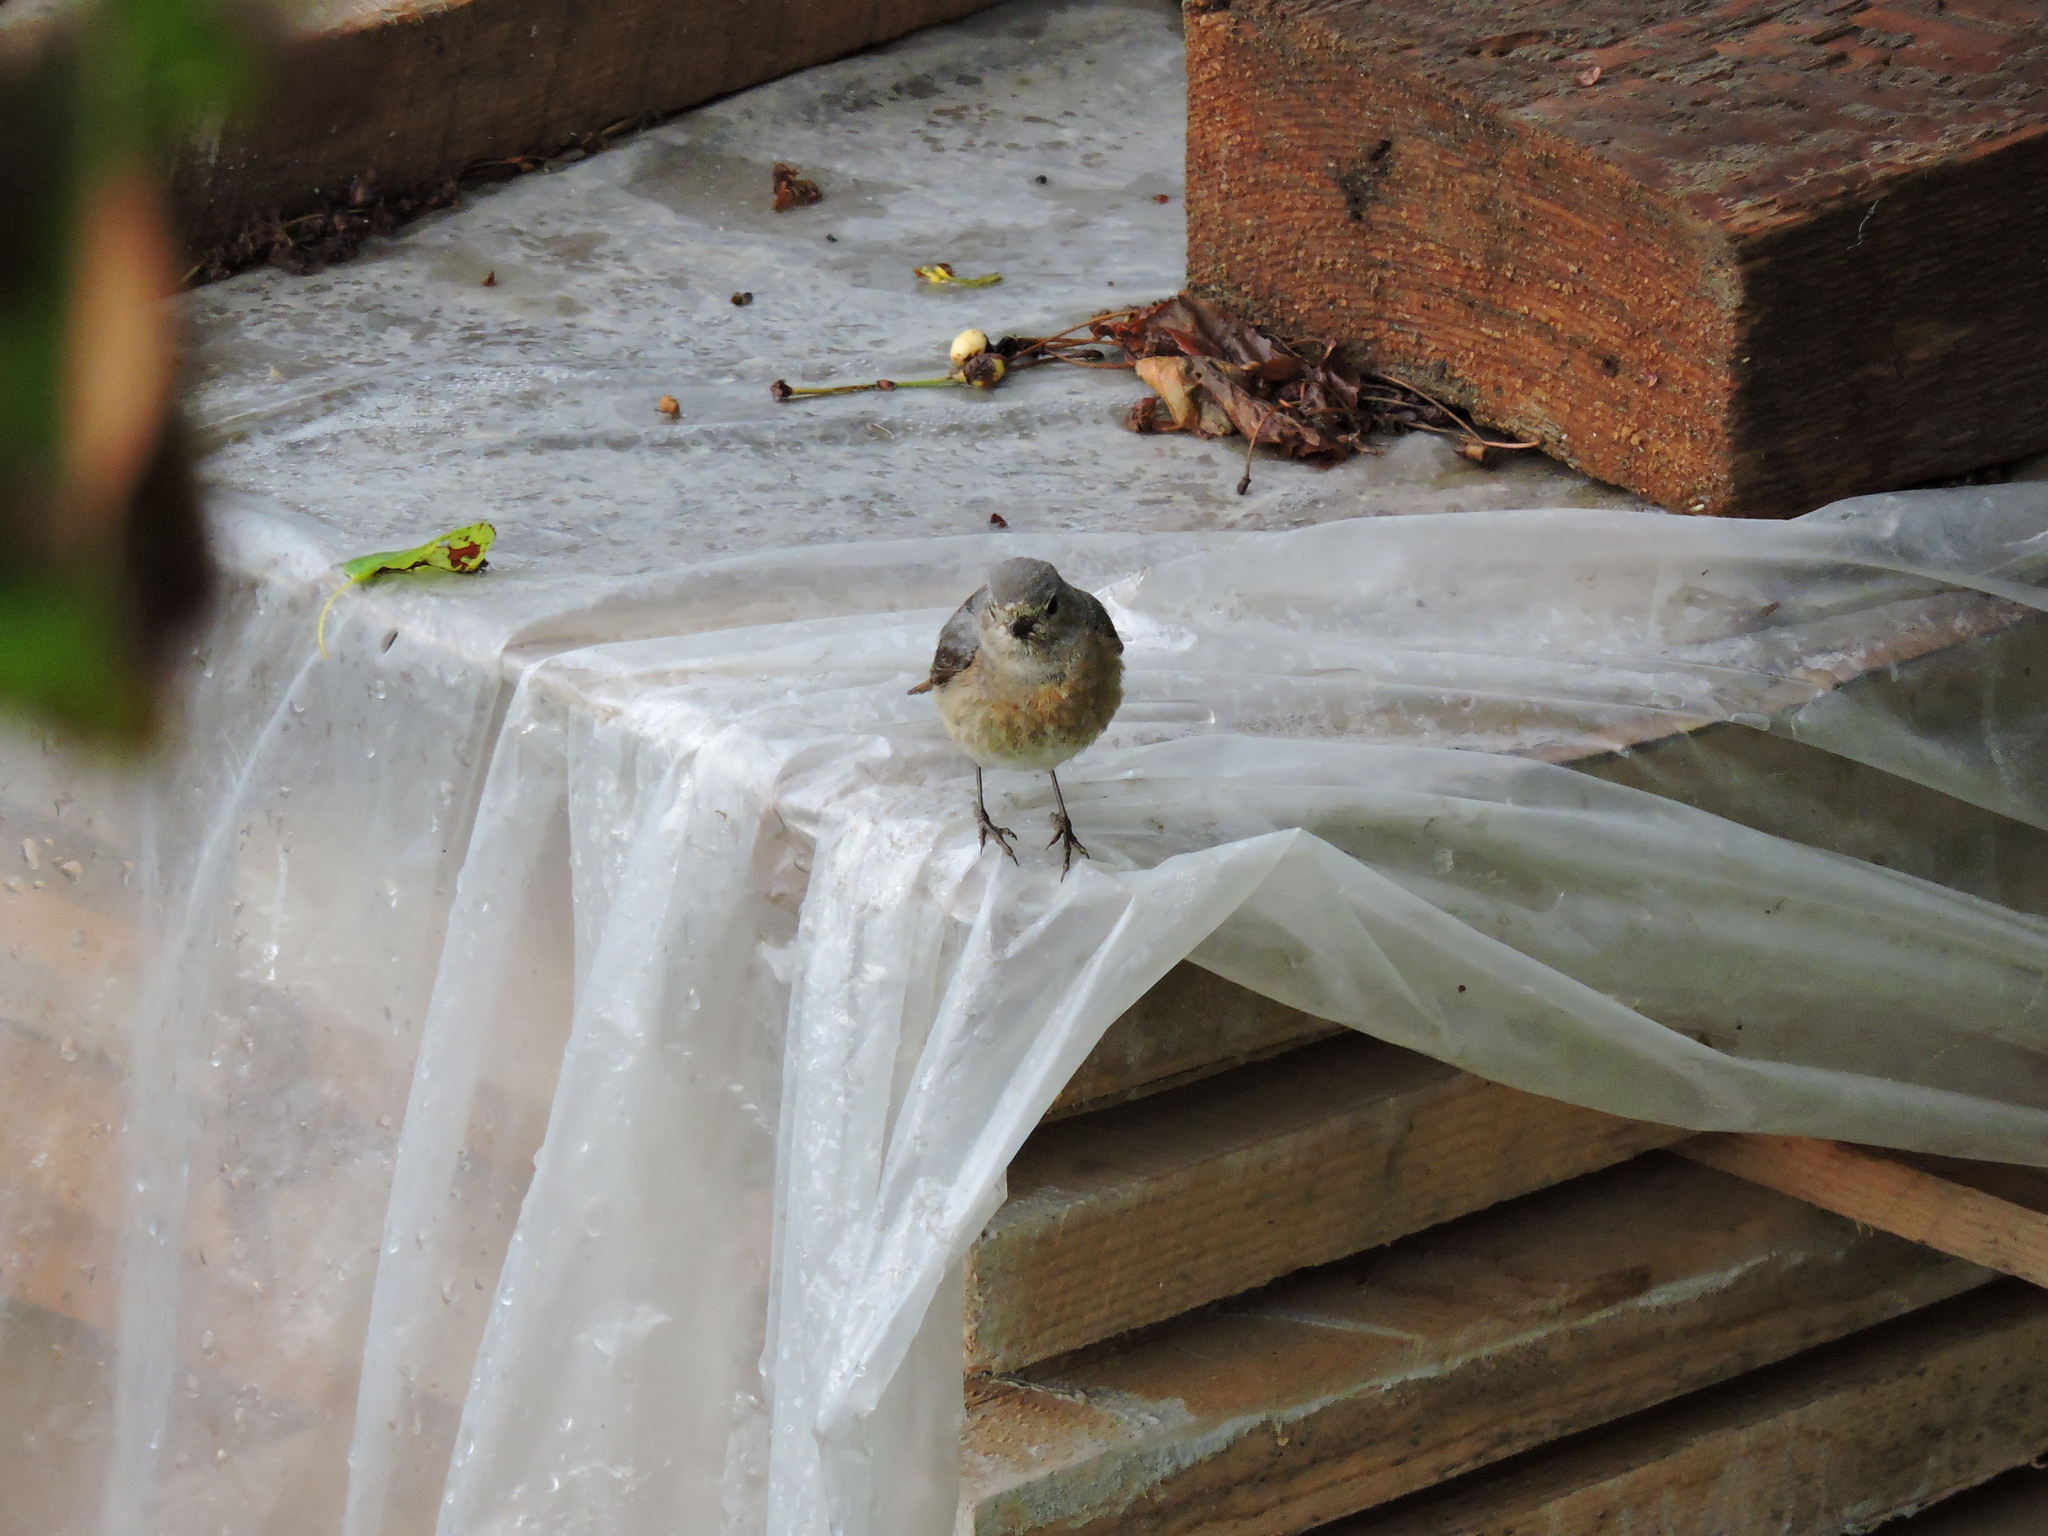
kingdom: Animalia
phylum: Chordata
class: Aves
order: Passeriformes
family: Muscicapidae
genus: Phoenicurus
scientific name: Phoenicurus phoenicurus
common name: Common redstart
